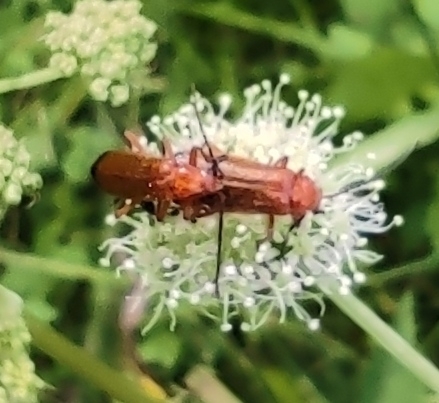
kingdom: Animalia
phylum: Arthropoda
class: Insecta
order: Coleoptera
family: Cantharidae
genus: Rhagonycha
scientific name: Rhagonycha fulva
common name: Common red soldier beetle
